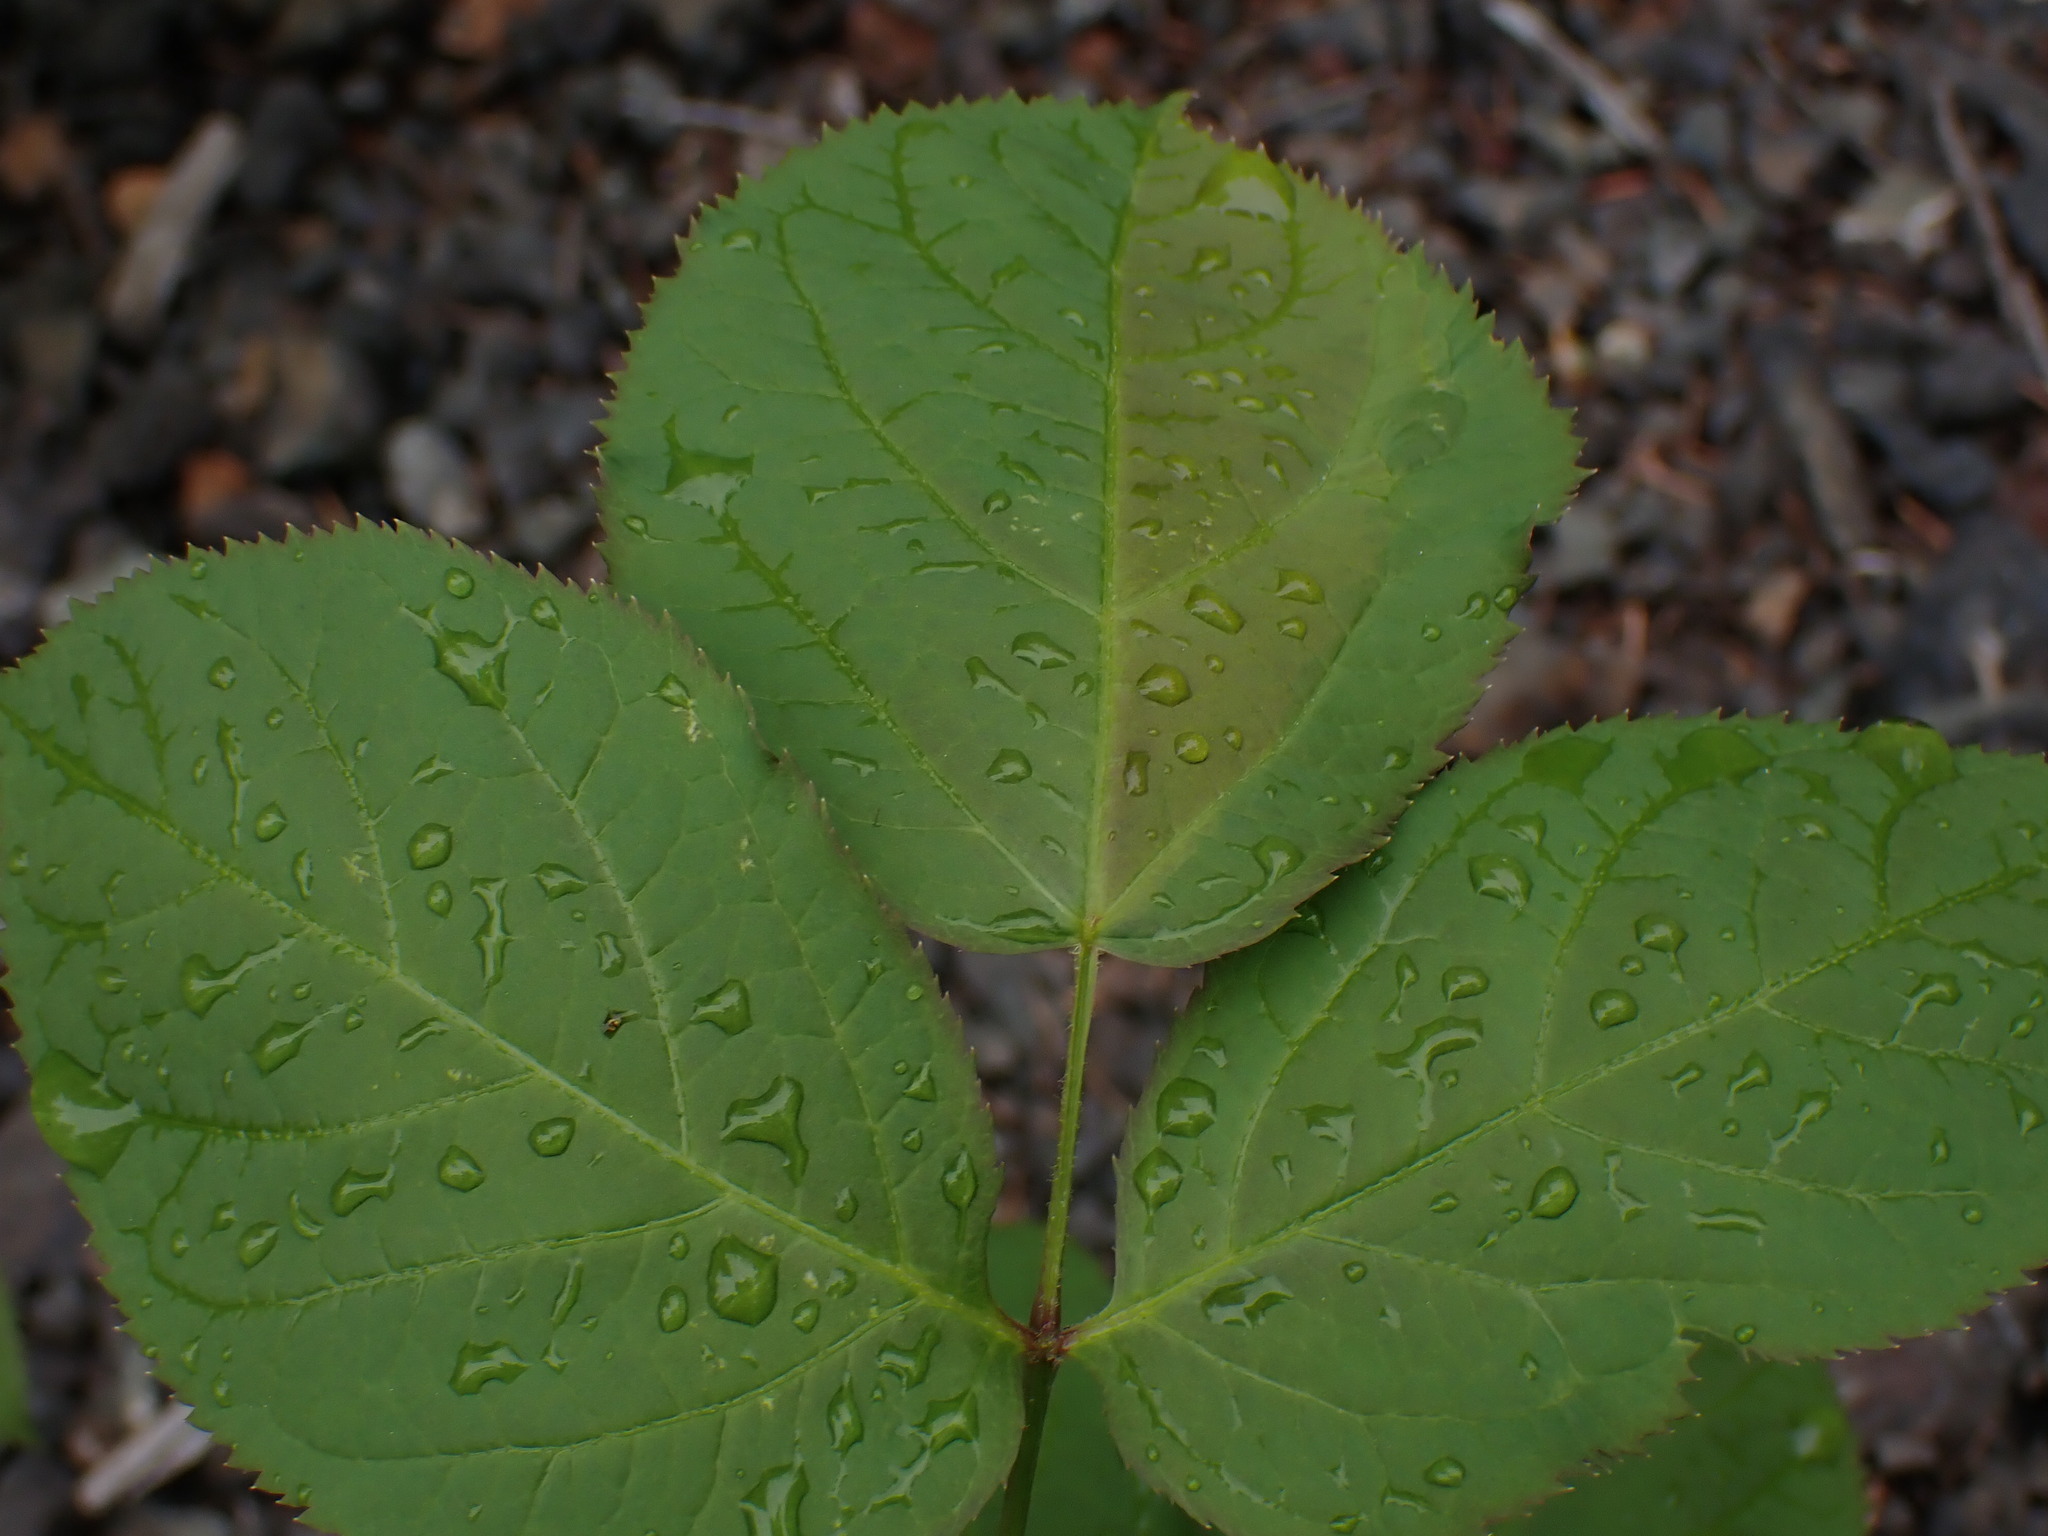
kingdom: Plantae
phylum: Tracheophyta
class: Magnoliopsida
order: Apiales
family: Araliaceae
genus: Aralia
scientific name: Aralia nudicaulis
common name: Wild sarsaparilla
